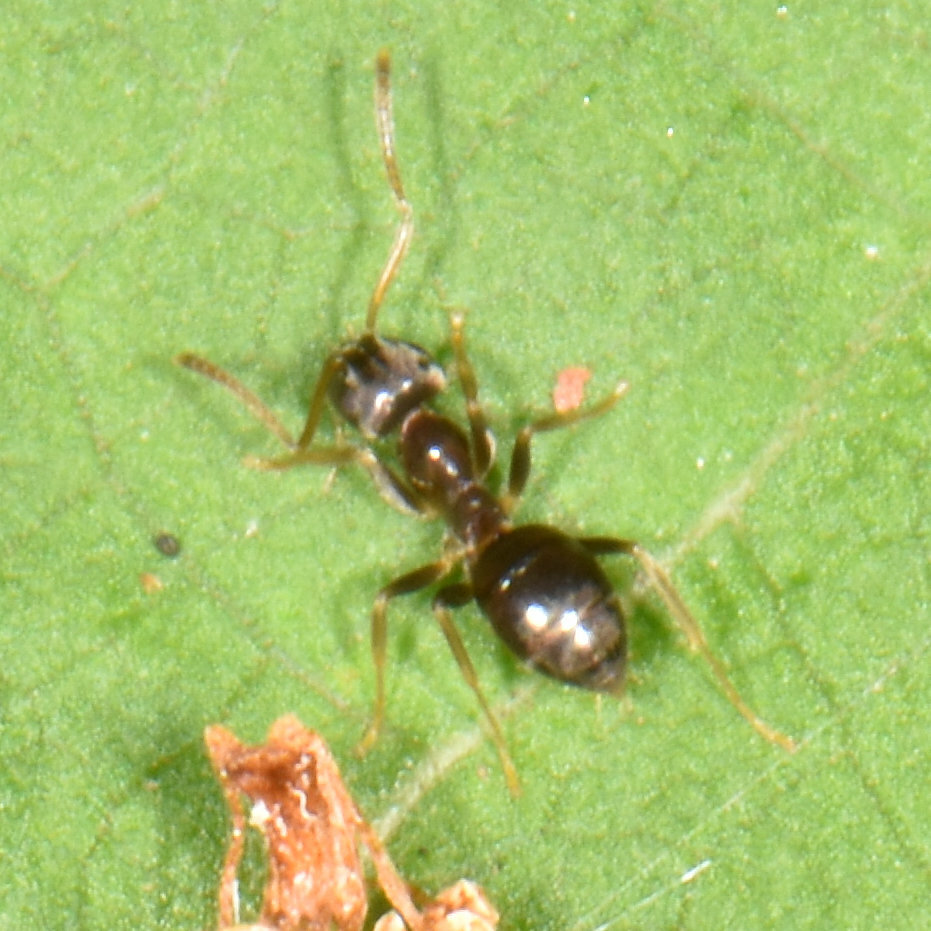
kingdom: Animalia
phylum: Arthropoda
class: Insecta
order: Hymenoptera
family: Formicidae
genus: Lasius
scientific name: Lasius americanus
